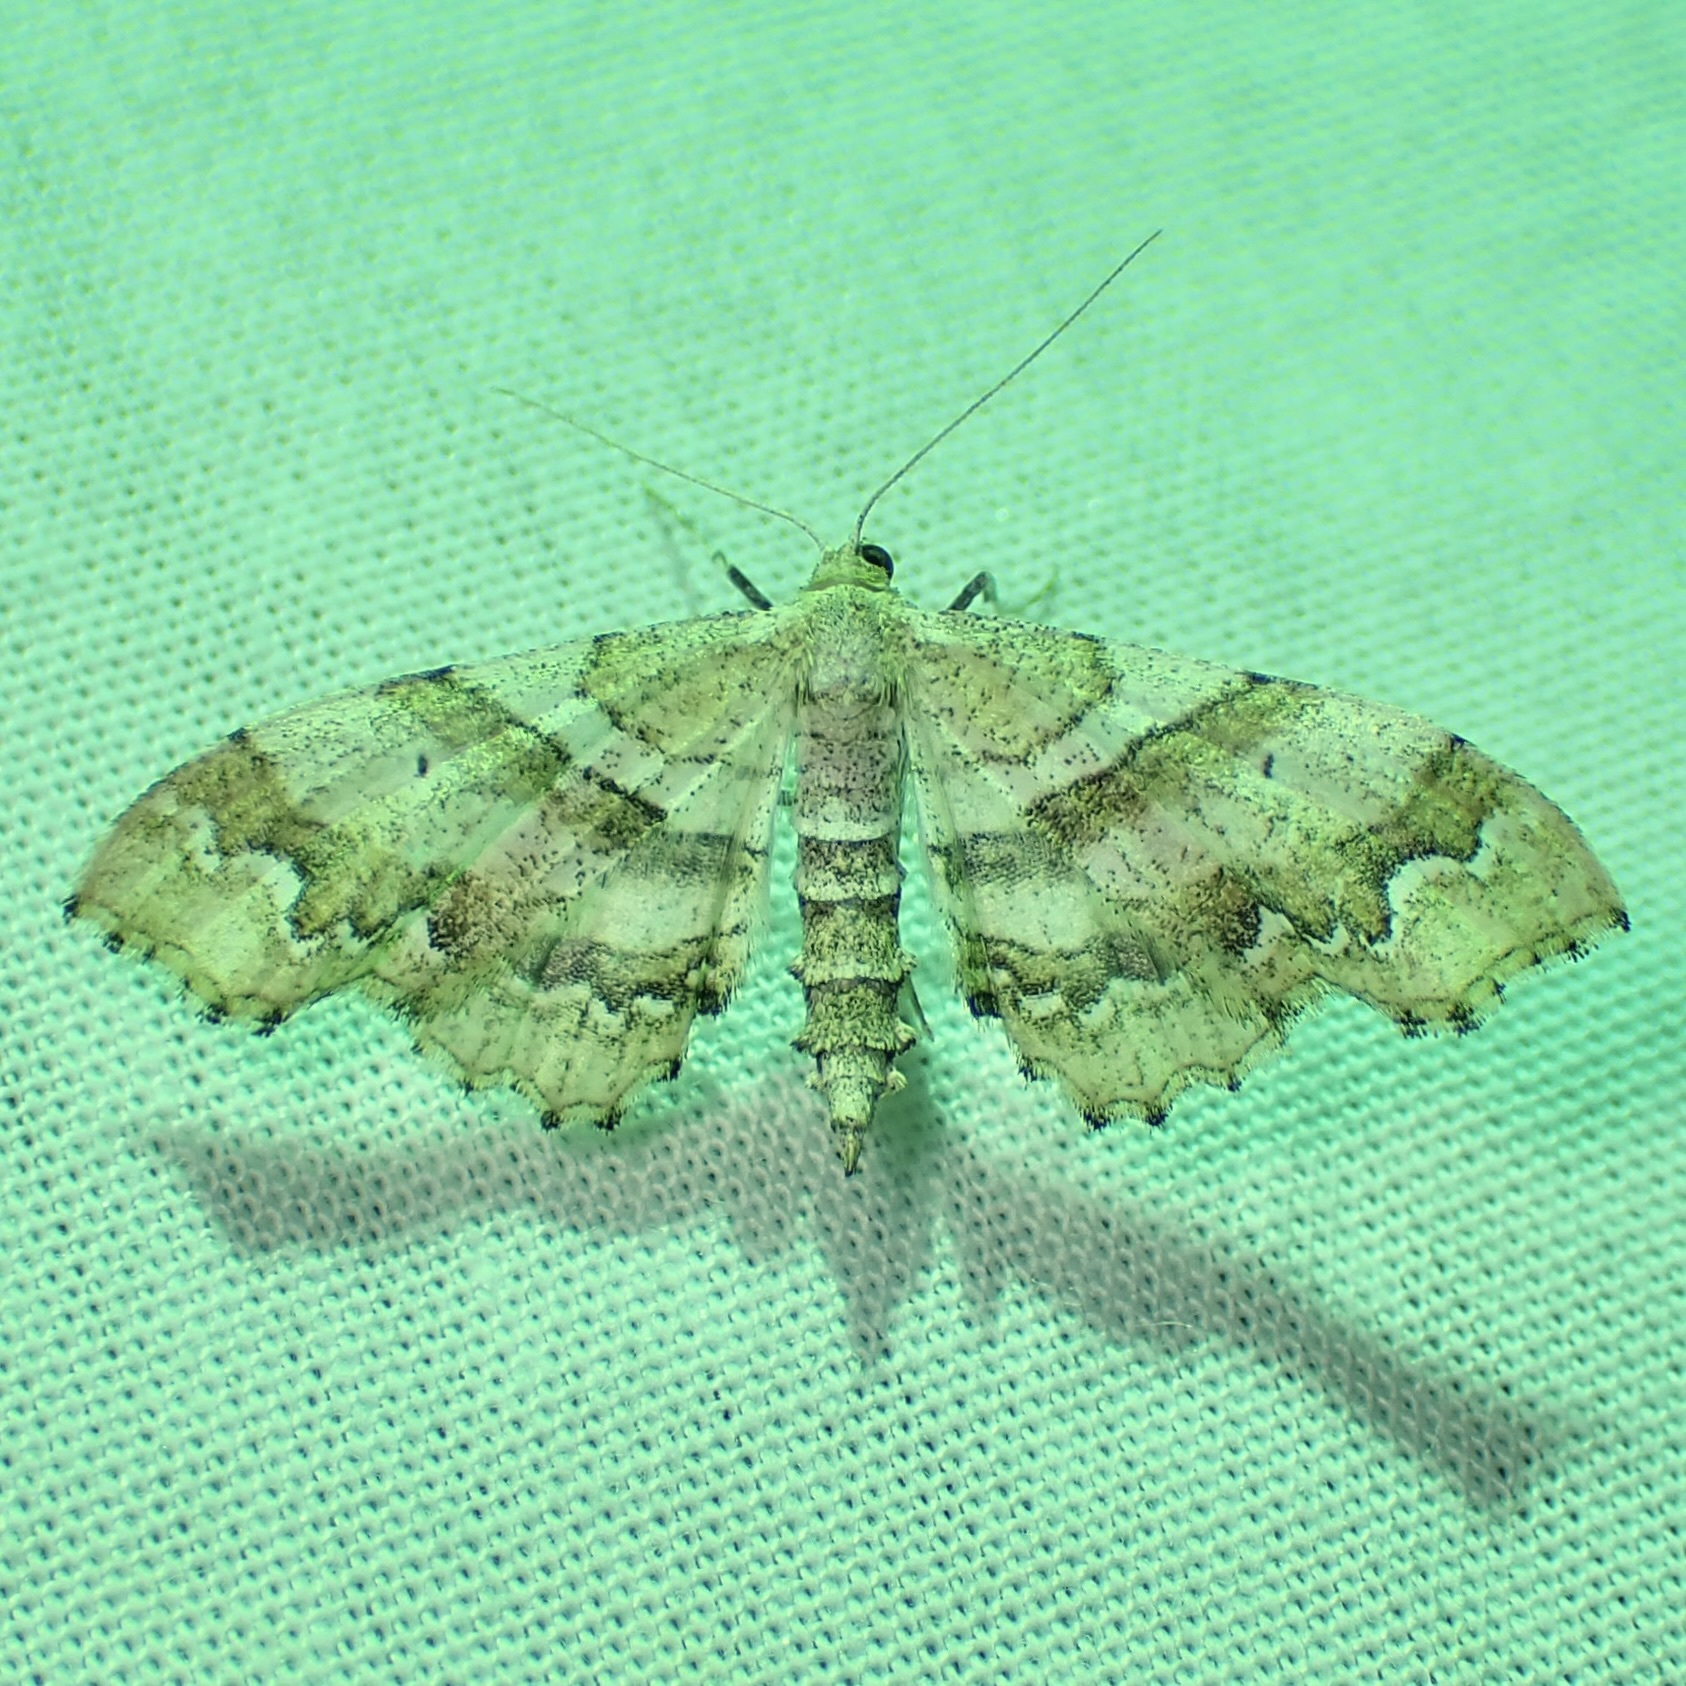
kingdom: Animalia
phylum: Arthropoda
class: Insecta
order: Lepidoptera
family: Geometridae
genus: Odontoptila
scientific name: Odontoptila obrimo
